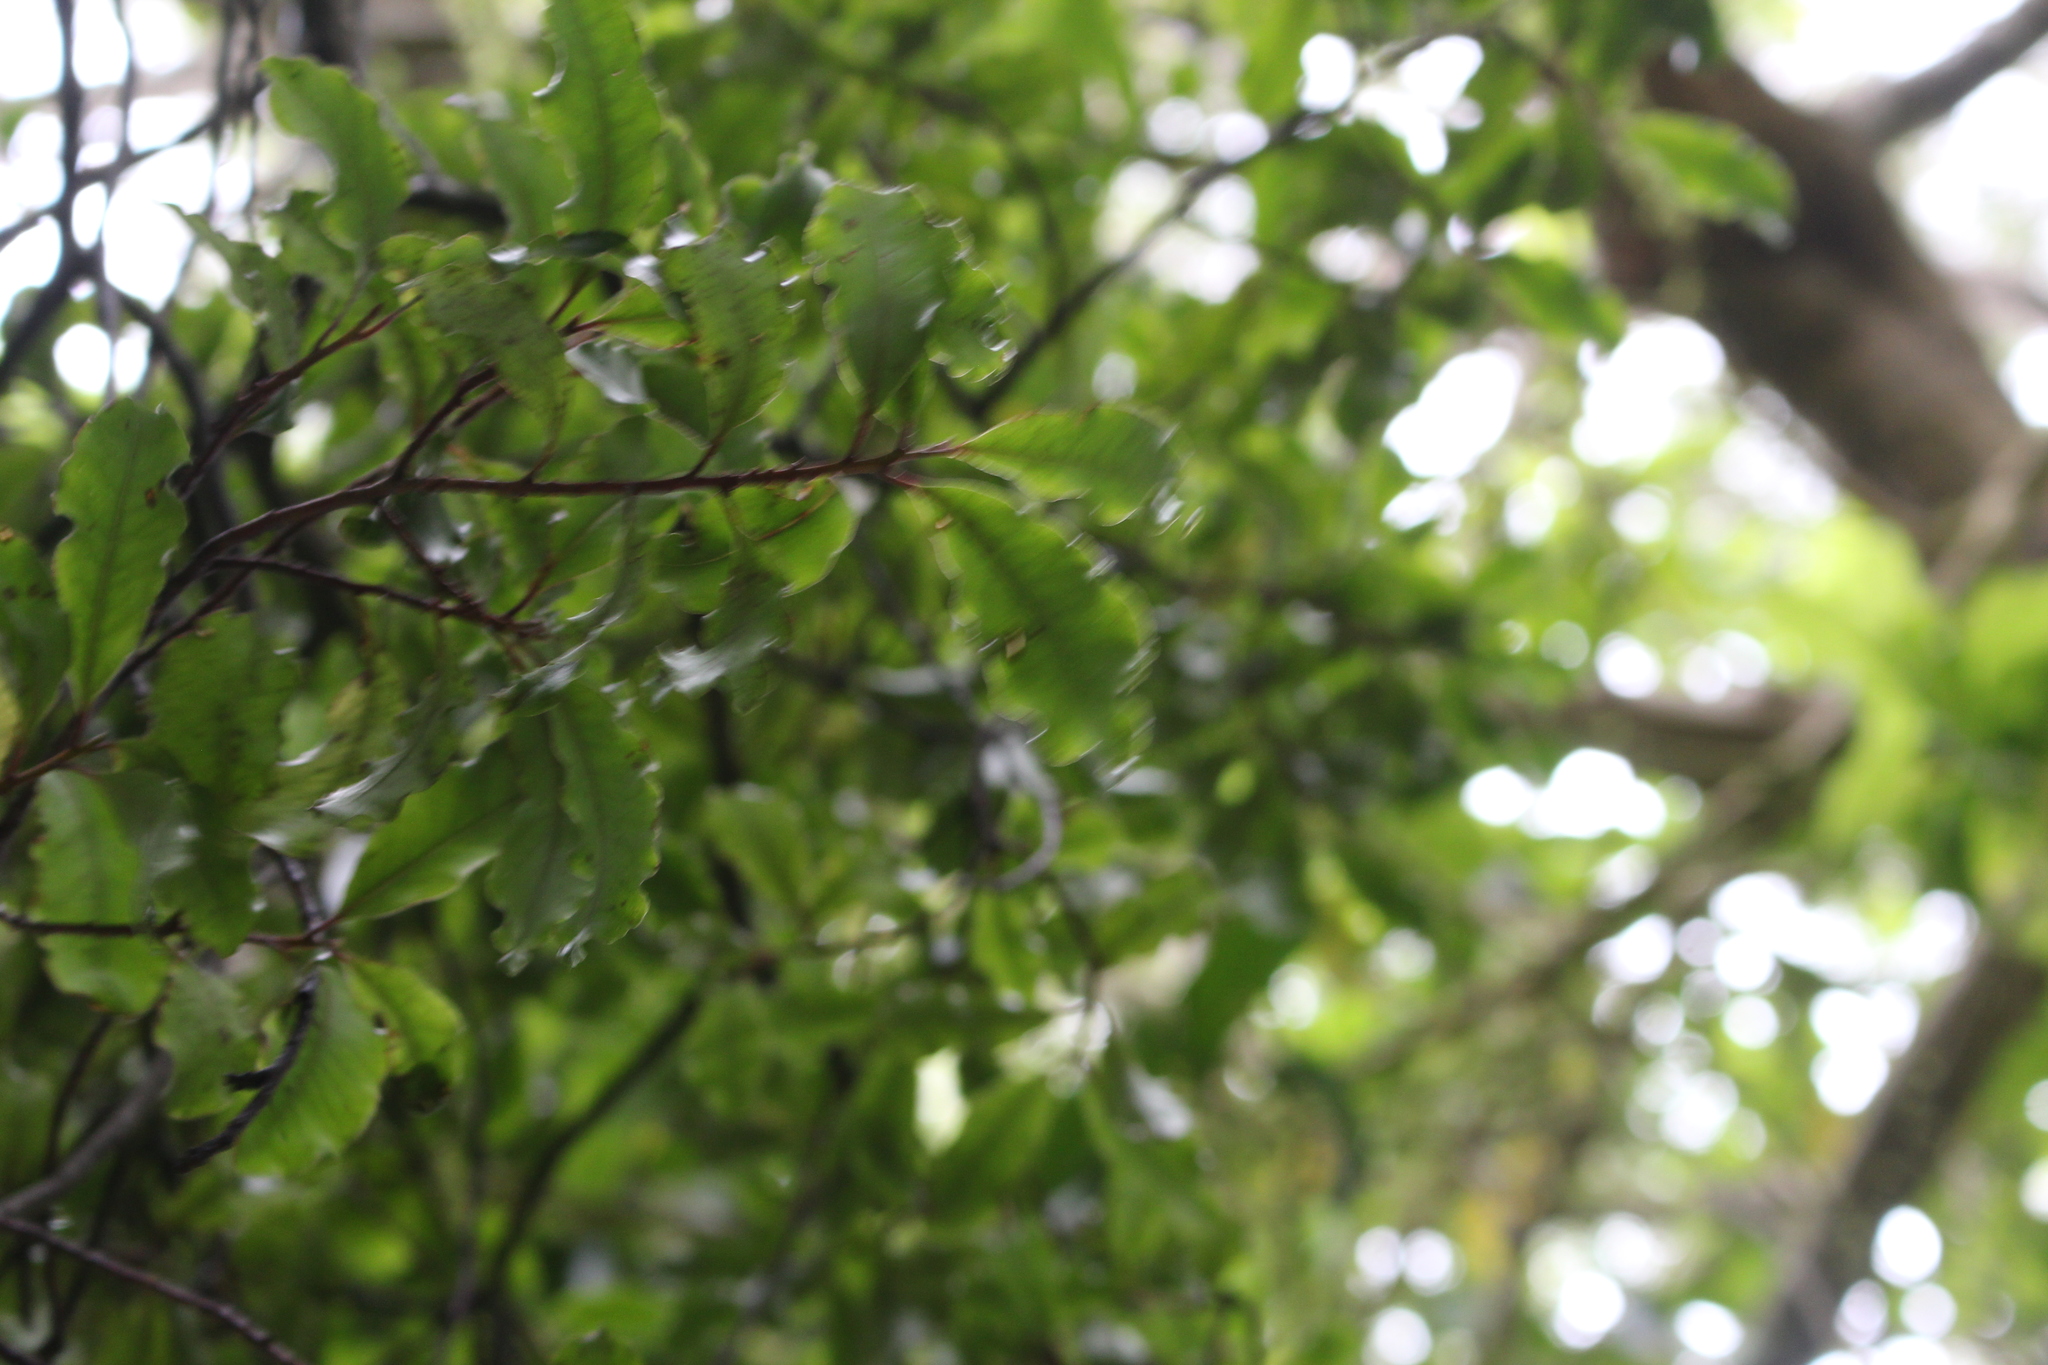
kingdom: Plantae
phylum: Tracheophyta
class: Magnoliopsida
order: Apiales
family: Pittosporaceae
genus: Pittosporum
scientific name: Pittosporum tenuifolium
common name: Kohuhu
